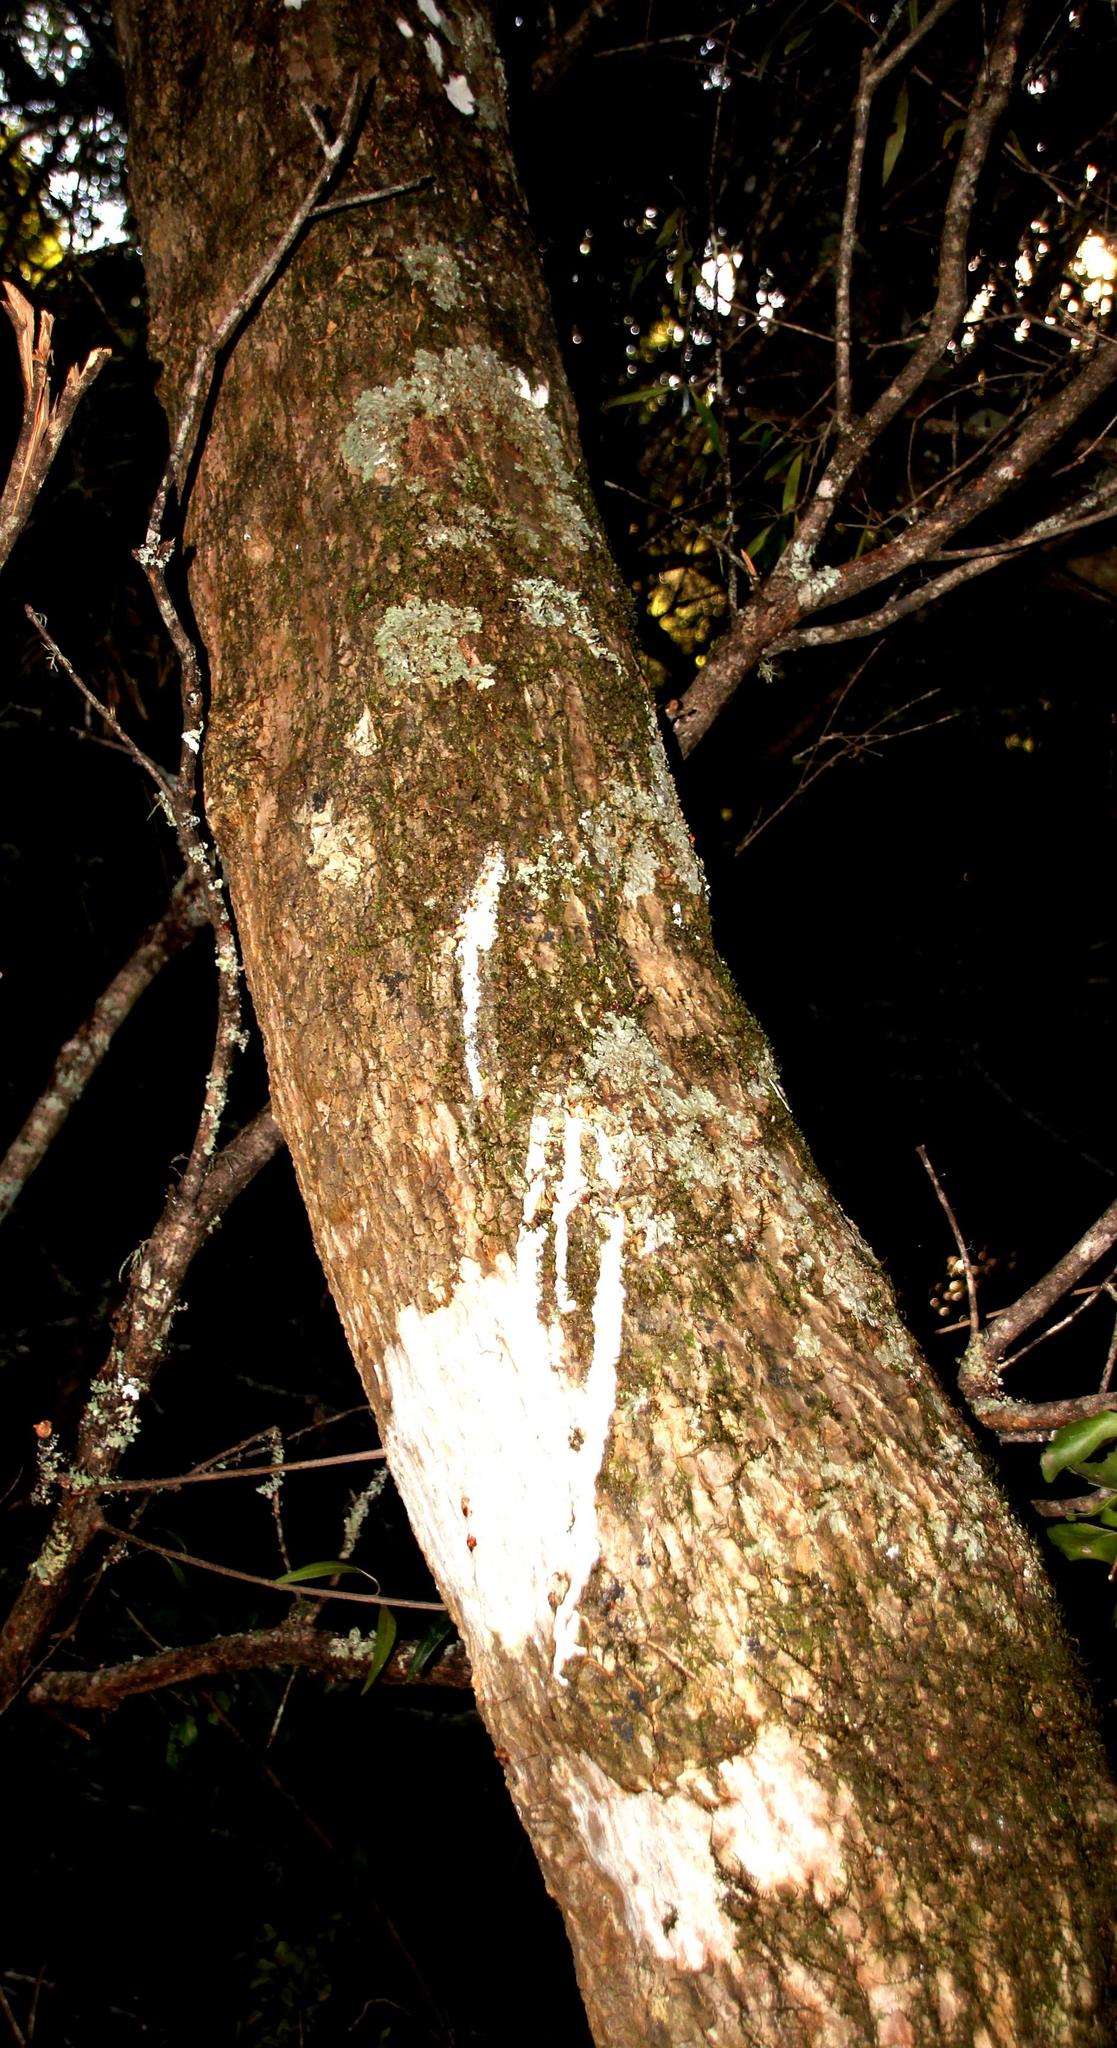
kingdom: Plantae
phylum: Tracheophyta
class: Magnoliopsida
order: Malpighiales
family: Euphorbiaceae
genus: Euphorbia
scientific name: Euphorbia triangularis
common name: Chandelier tree
